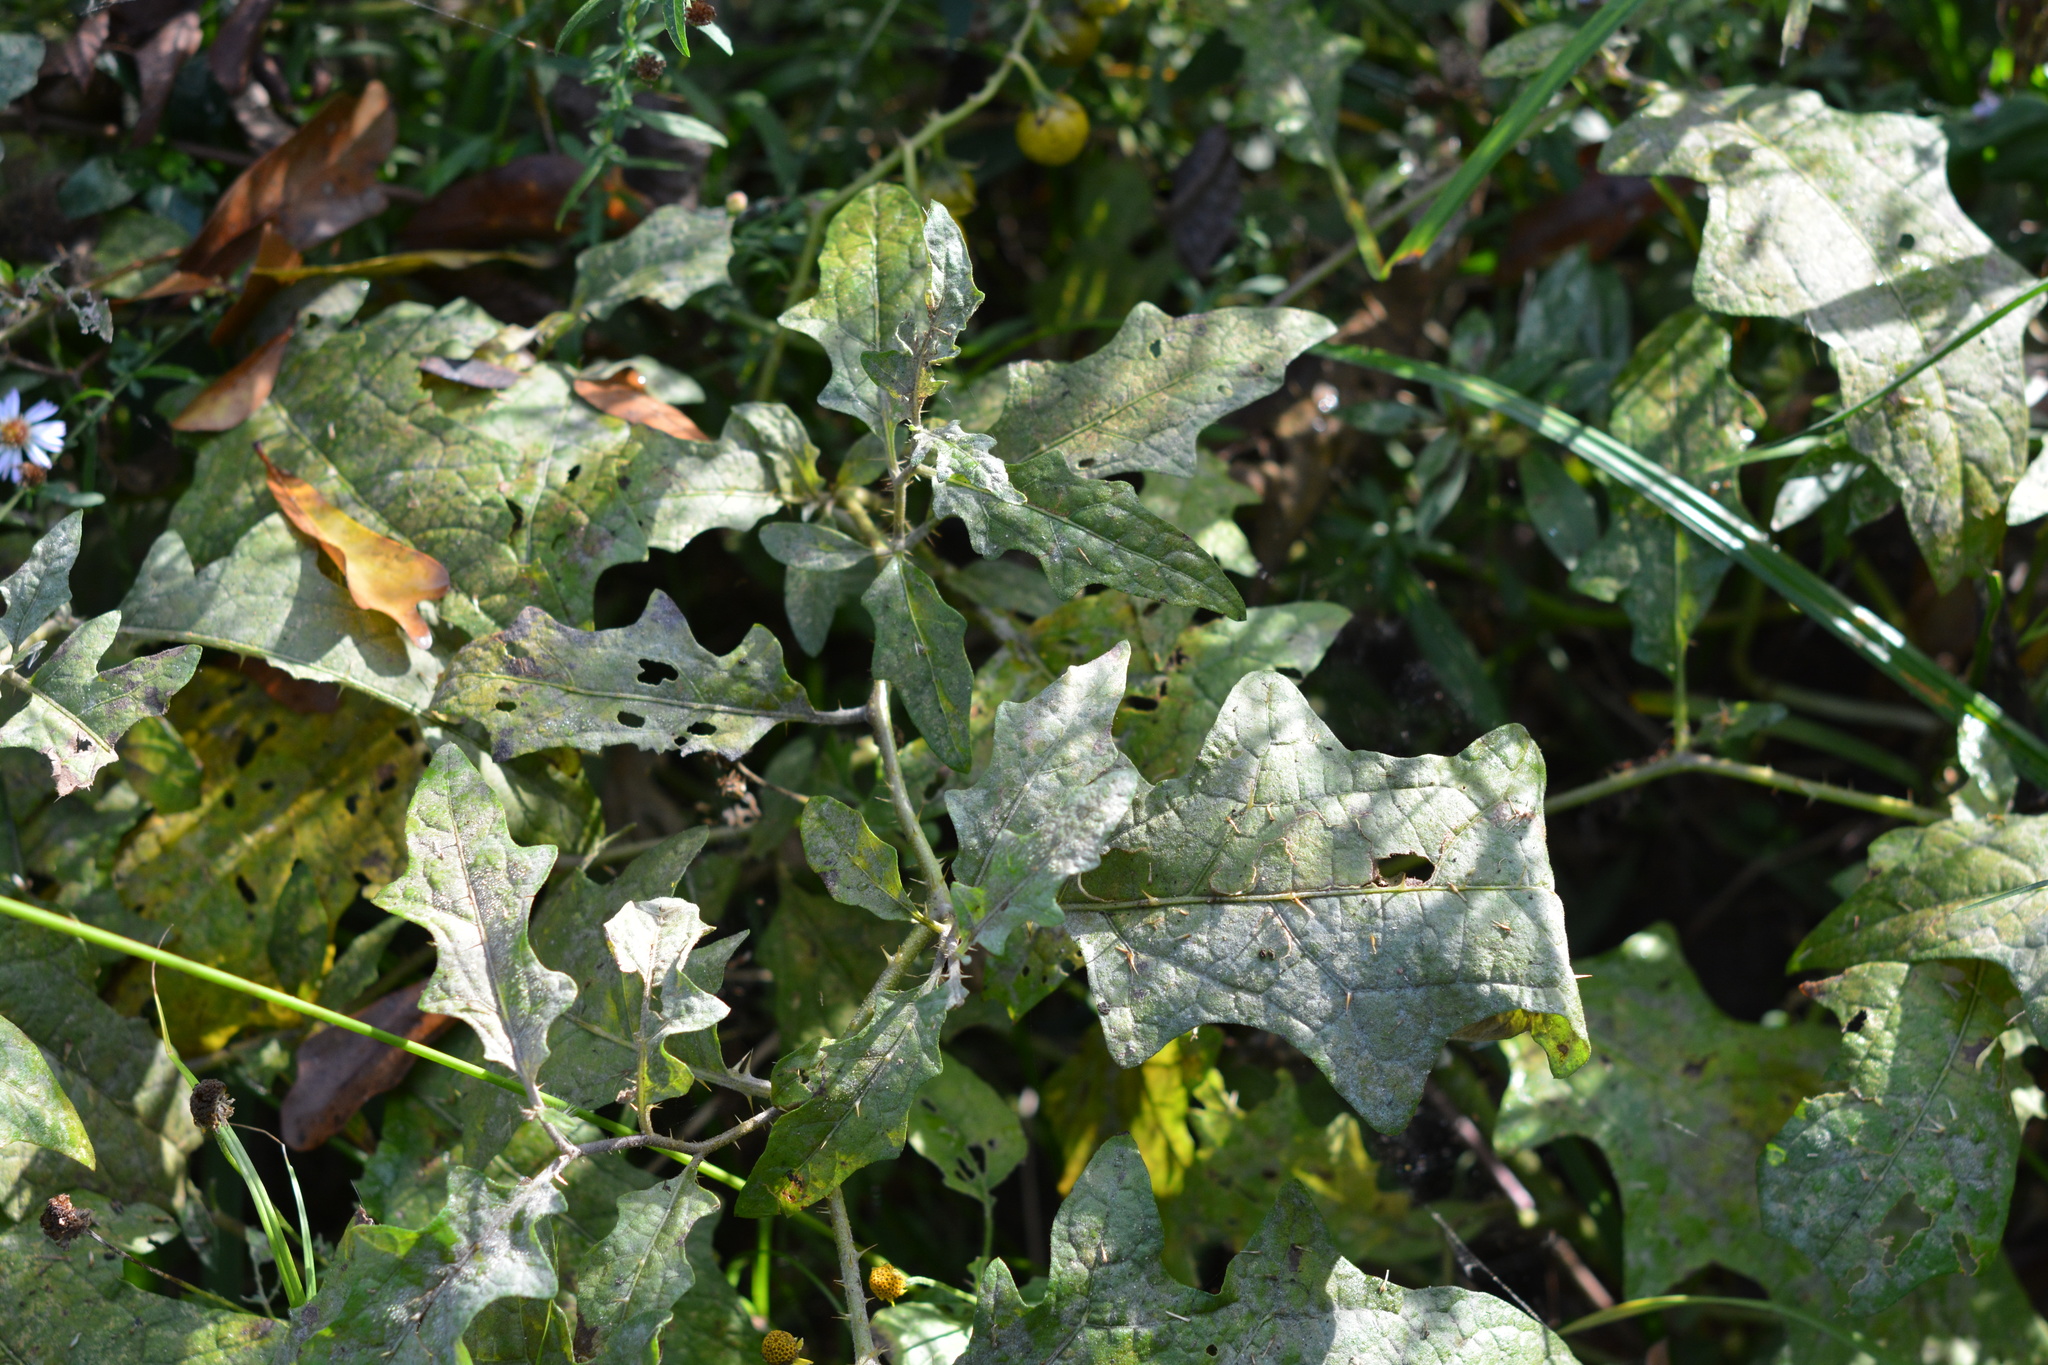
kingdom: Plantae
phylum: Tracheophyta
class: Magnoliopsida
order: Solanales
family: Solanaceae
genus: Solanum
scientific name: Solanum carolinense
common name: Horse-nettle
